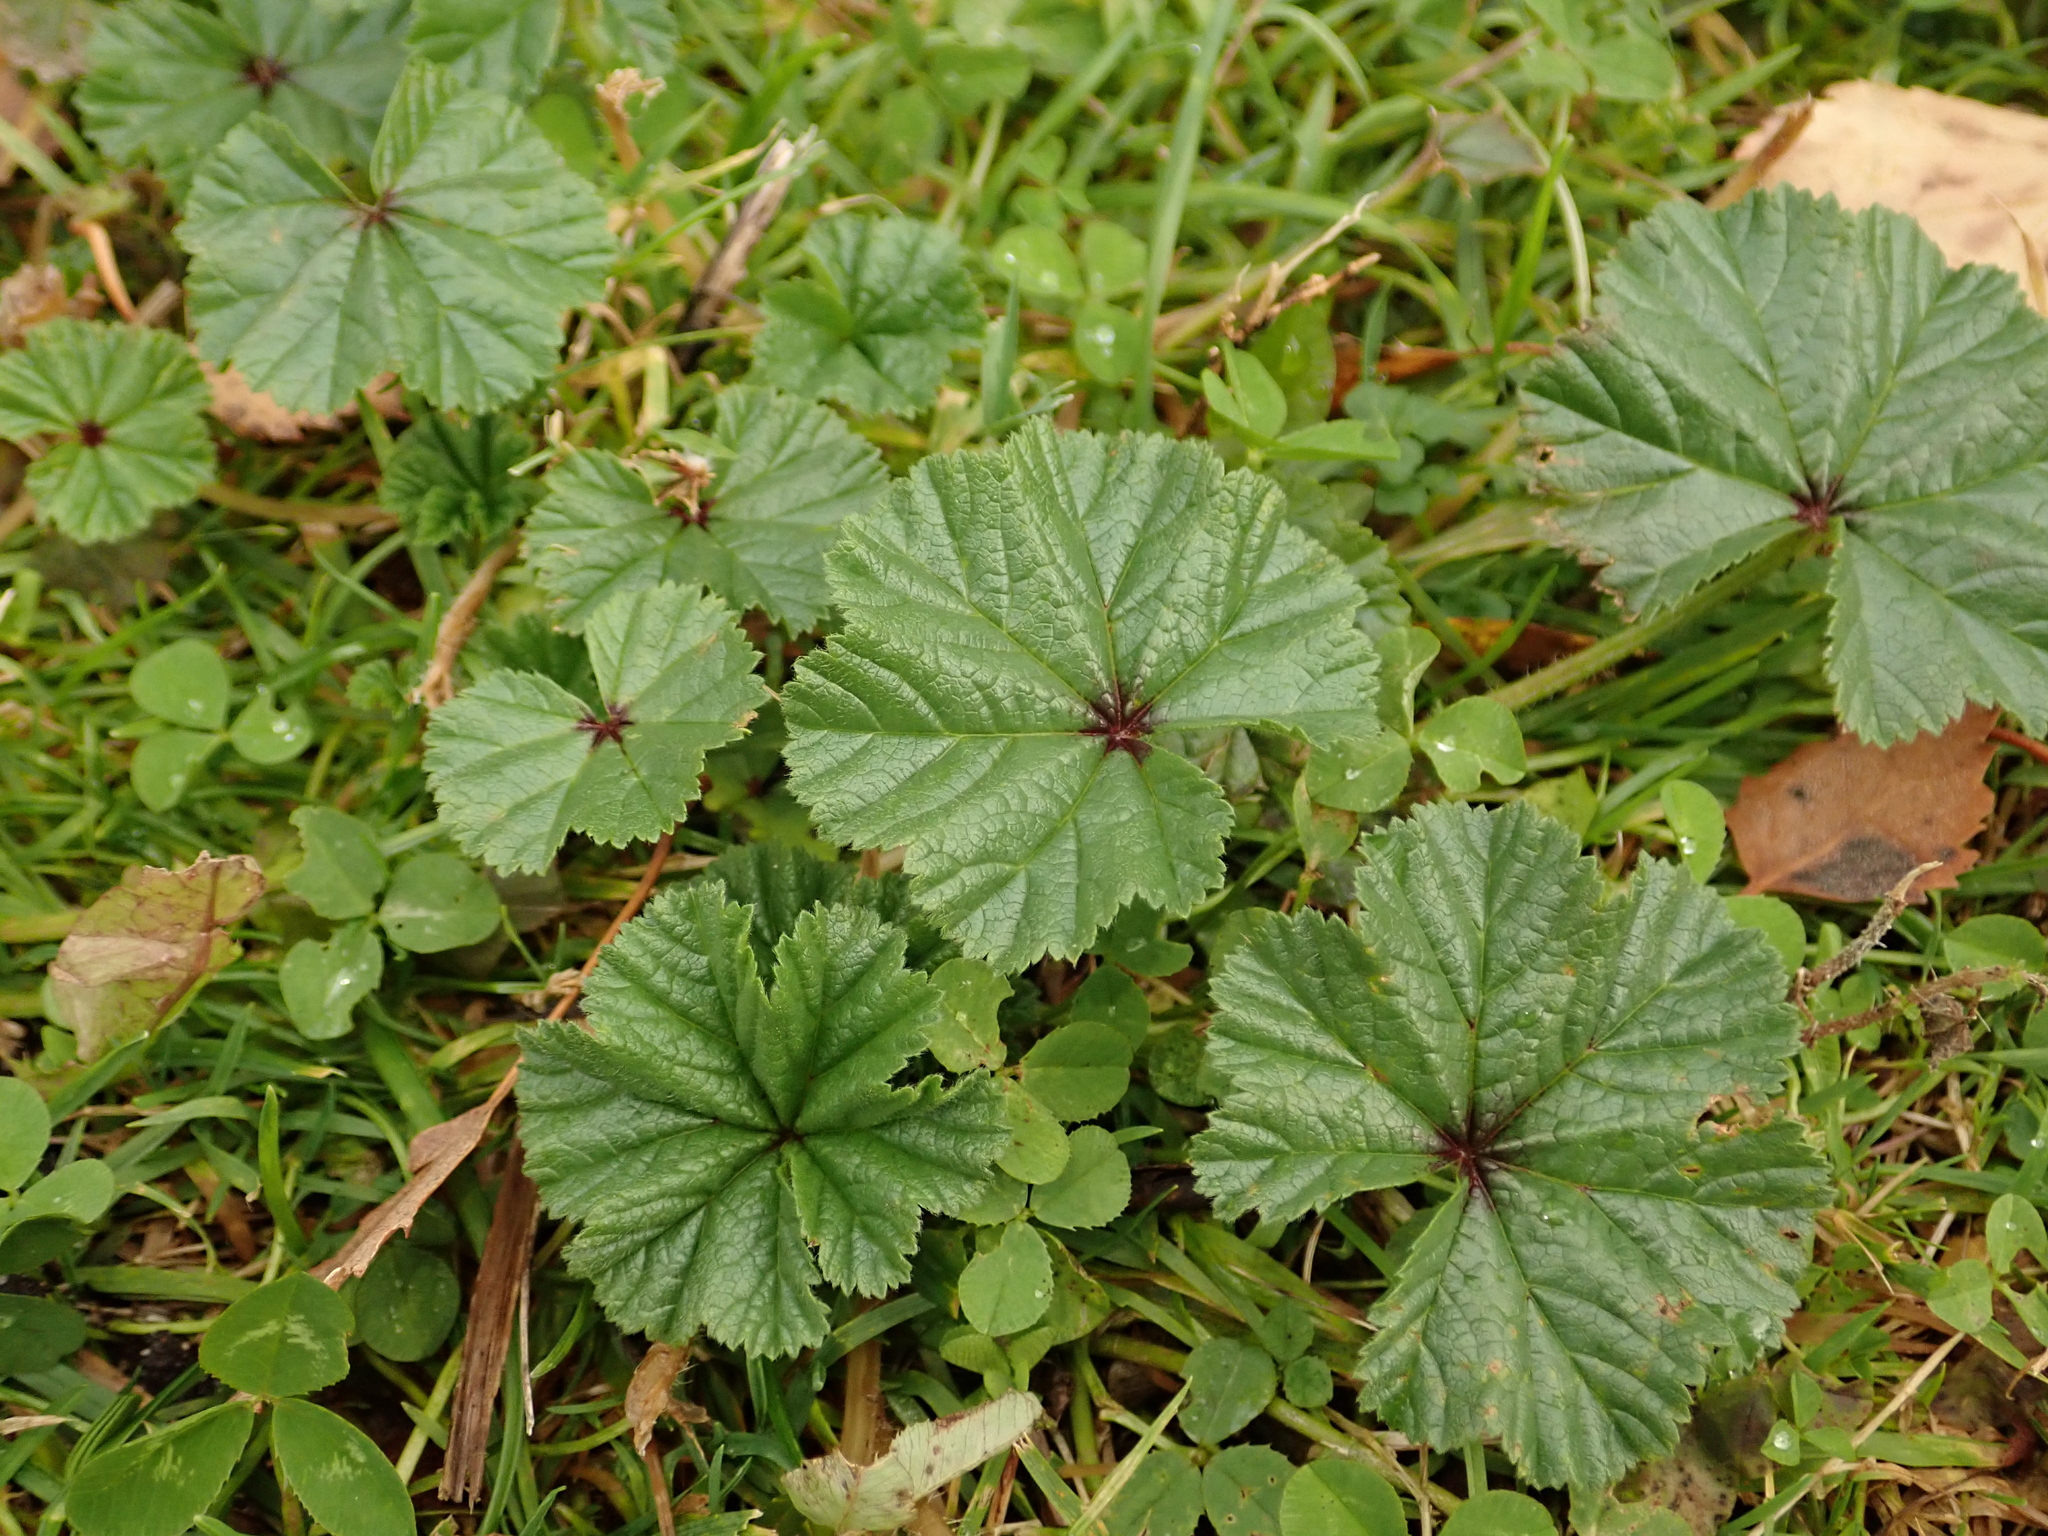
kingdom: Plantae
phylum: Tracheophyta
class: Magnoliopsida
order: Malvales
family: Malvaceae
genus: Malva
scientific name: Malva neglecta
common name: Common mallow
